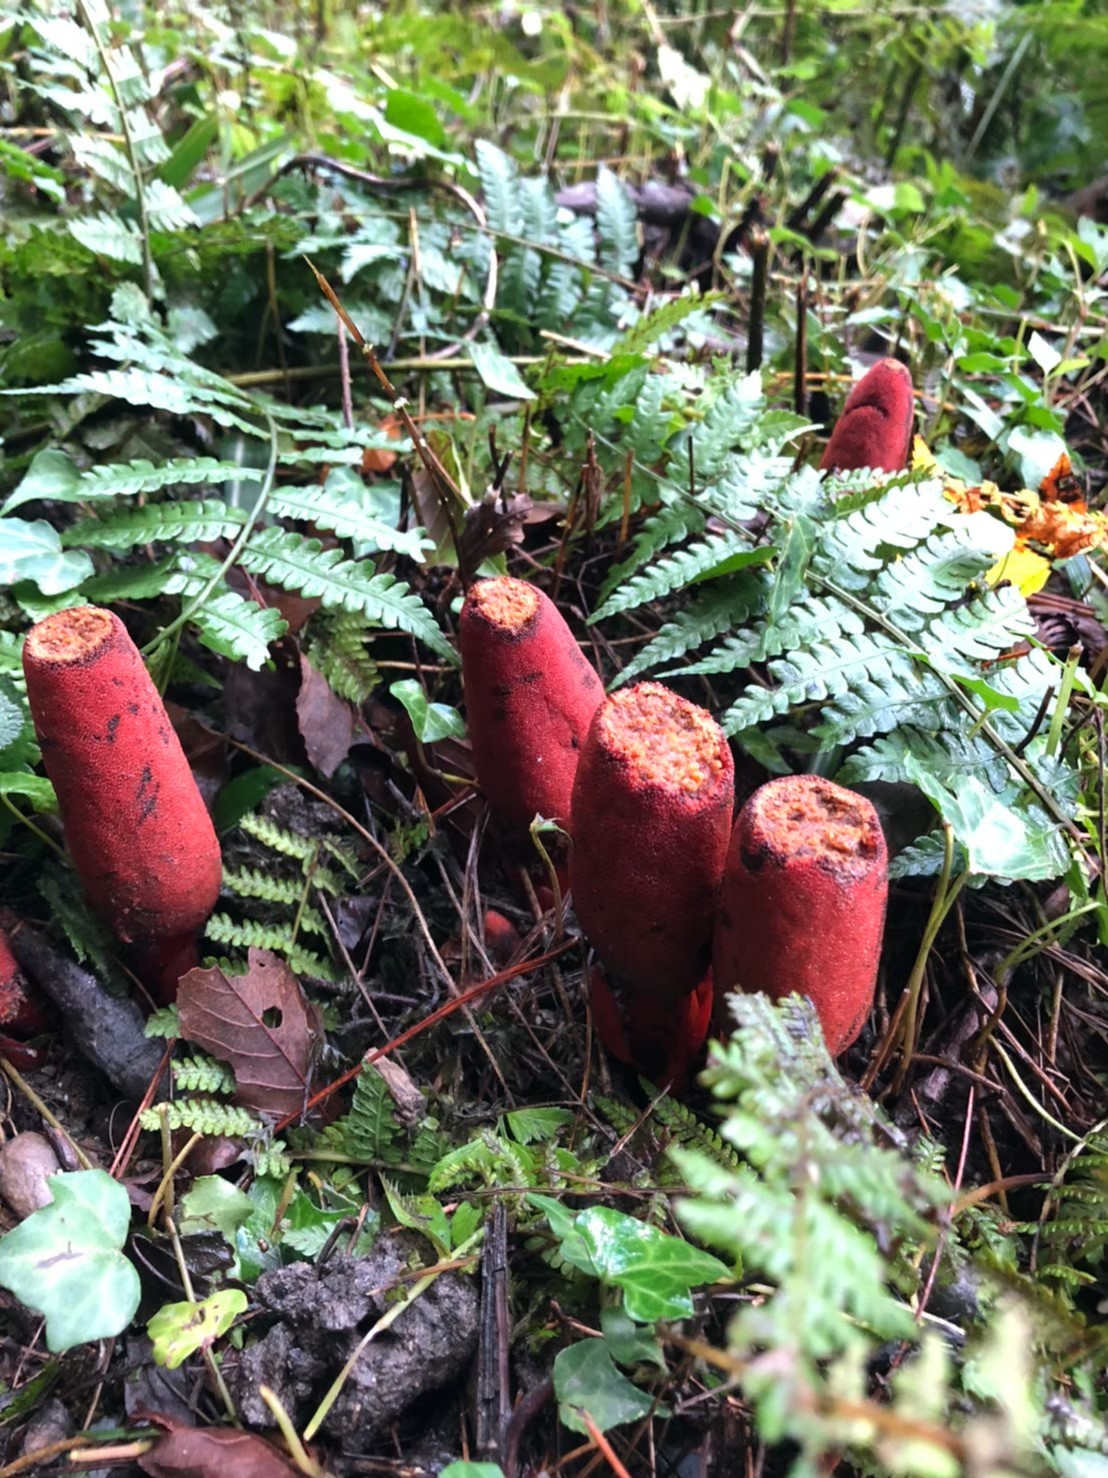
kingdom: Plantae
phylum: Tracheophyta
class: Magnoliopsida
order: Santalales
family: Balanophoraceae
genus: Balanophora
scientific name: Balanophora laxiflora
